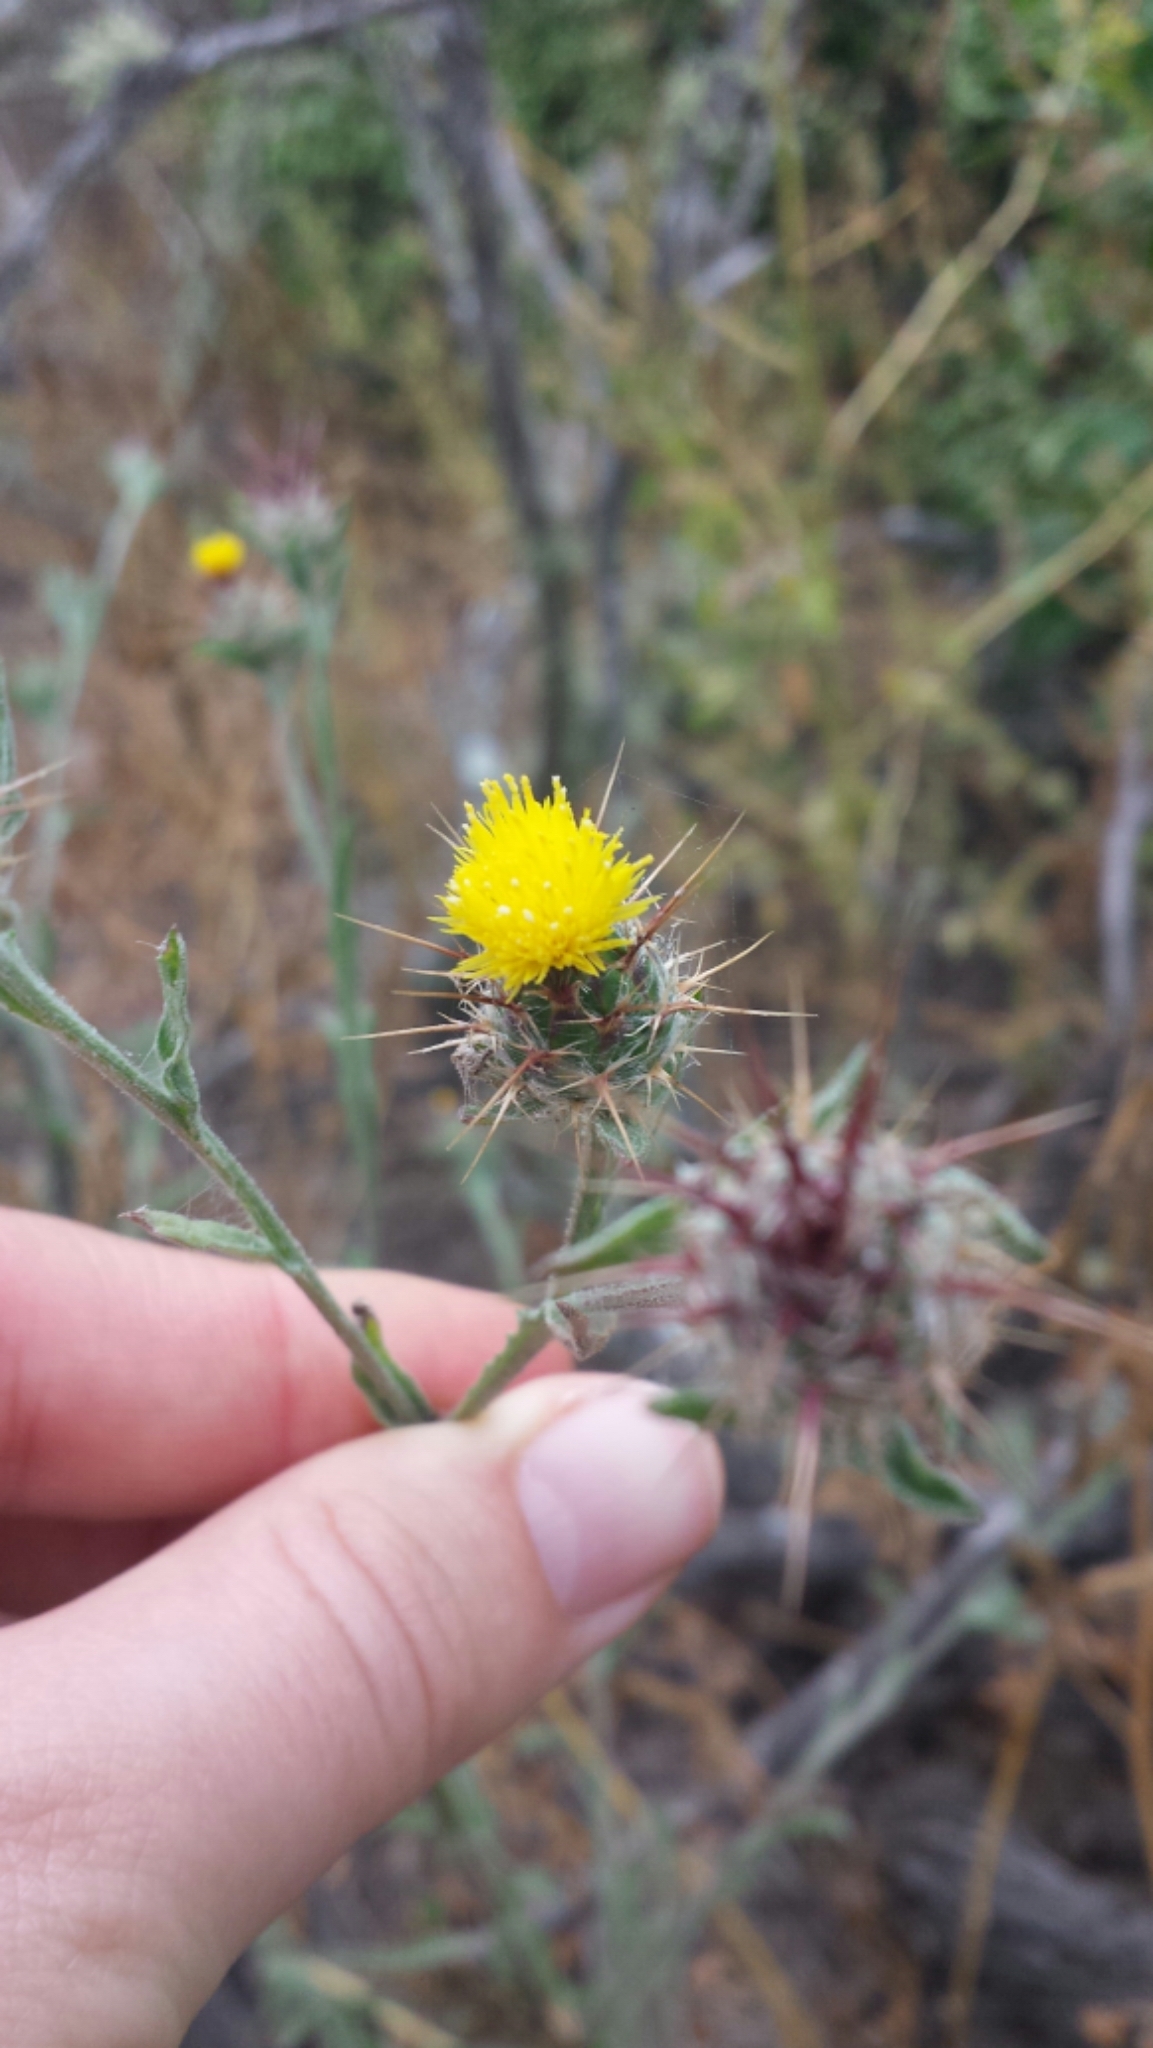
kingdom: Plantae
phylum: Tracheophyta
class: Magnoliopsida
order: Asterales
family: Asteraceae
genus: Centaurea
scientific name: Centaurea melitensis
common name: Maltese star-thistle
